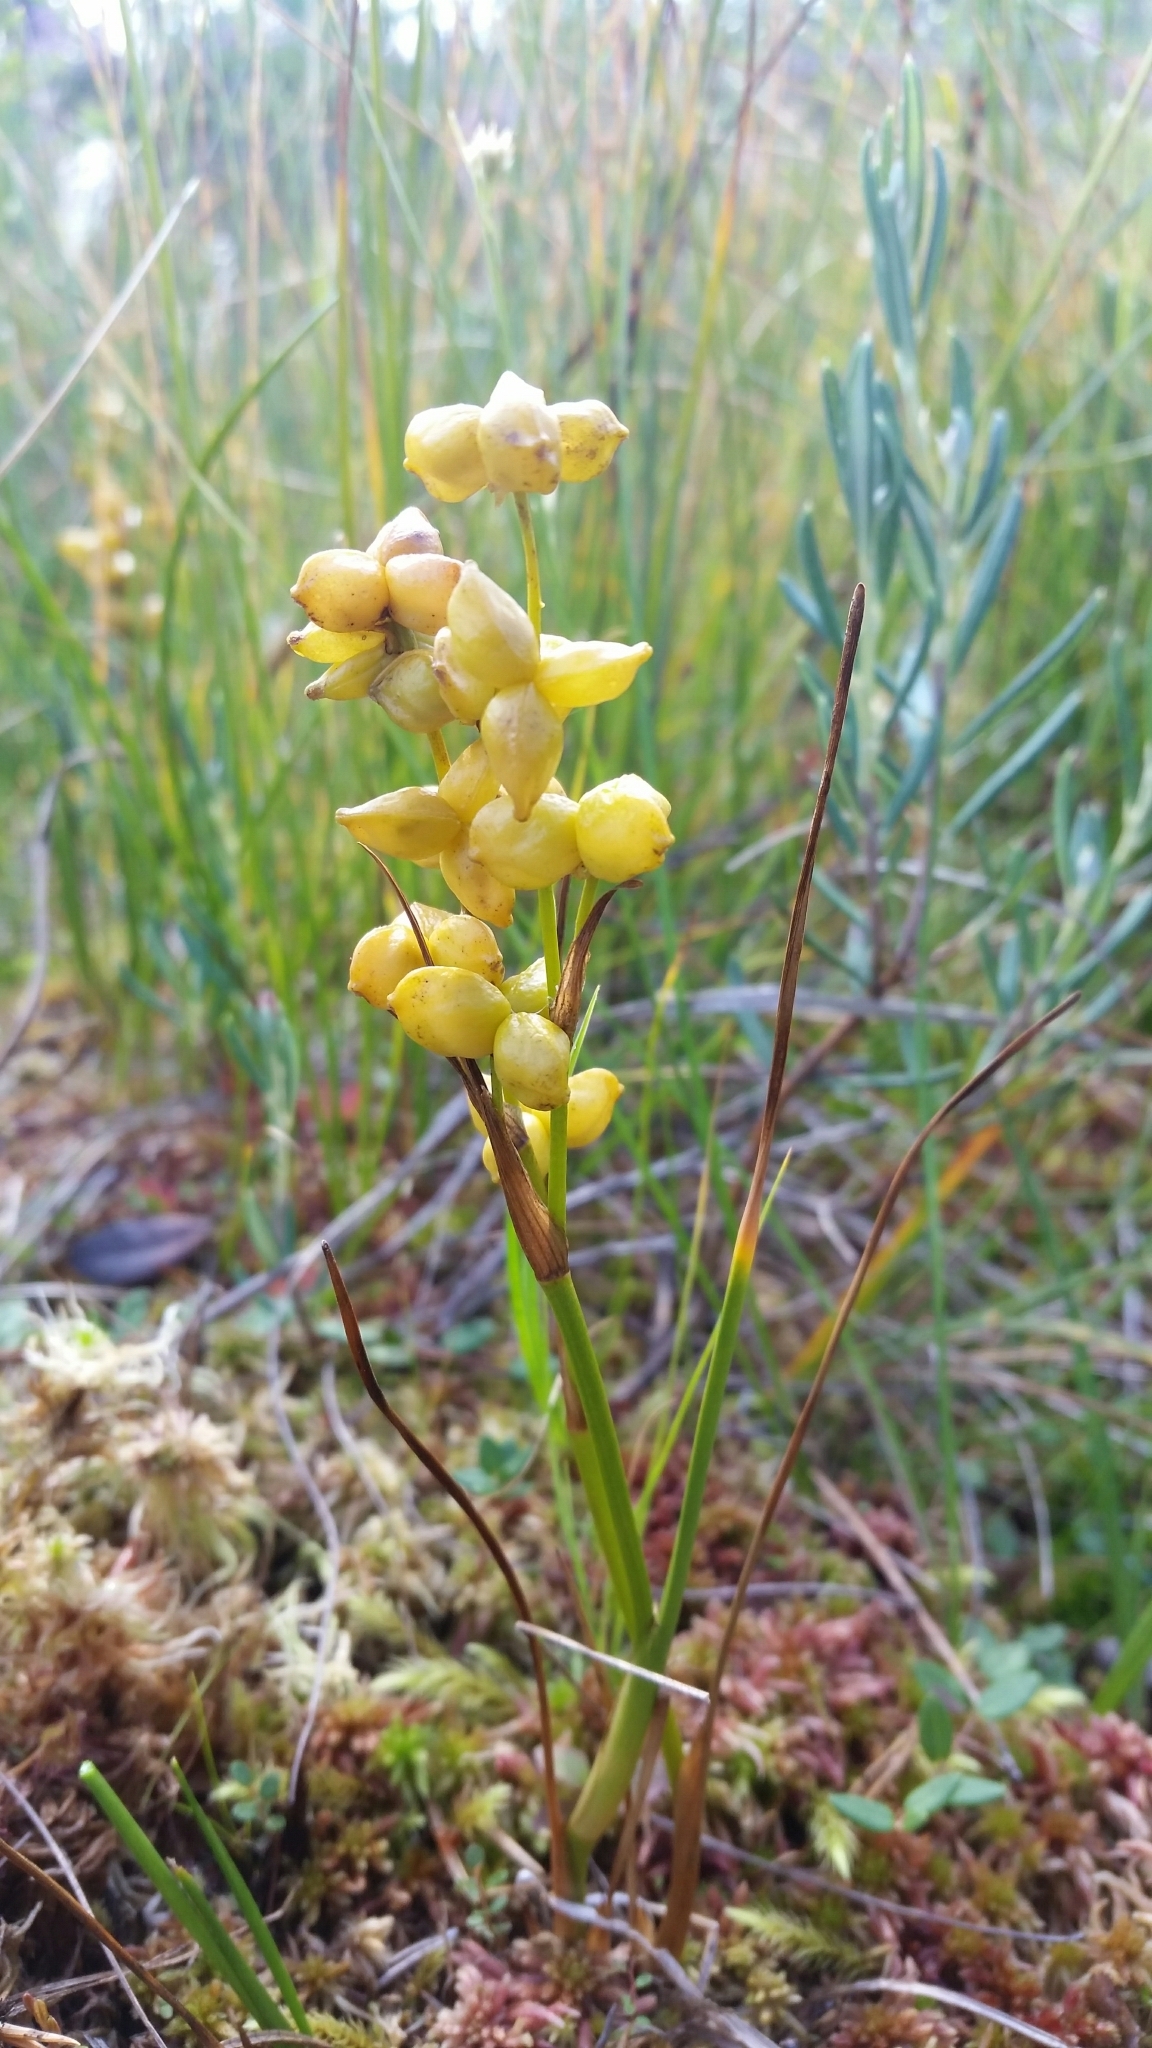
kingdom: Plantae
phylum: Tracheophyta
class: Liliopsida
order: Alismatales
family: Scheuchzeriaceae
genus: Scheuchzeria
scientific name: Scheuchzeria palustris
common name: Rannoch-rush
